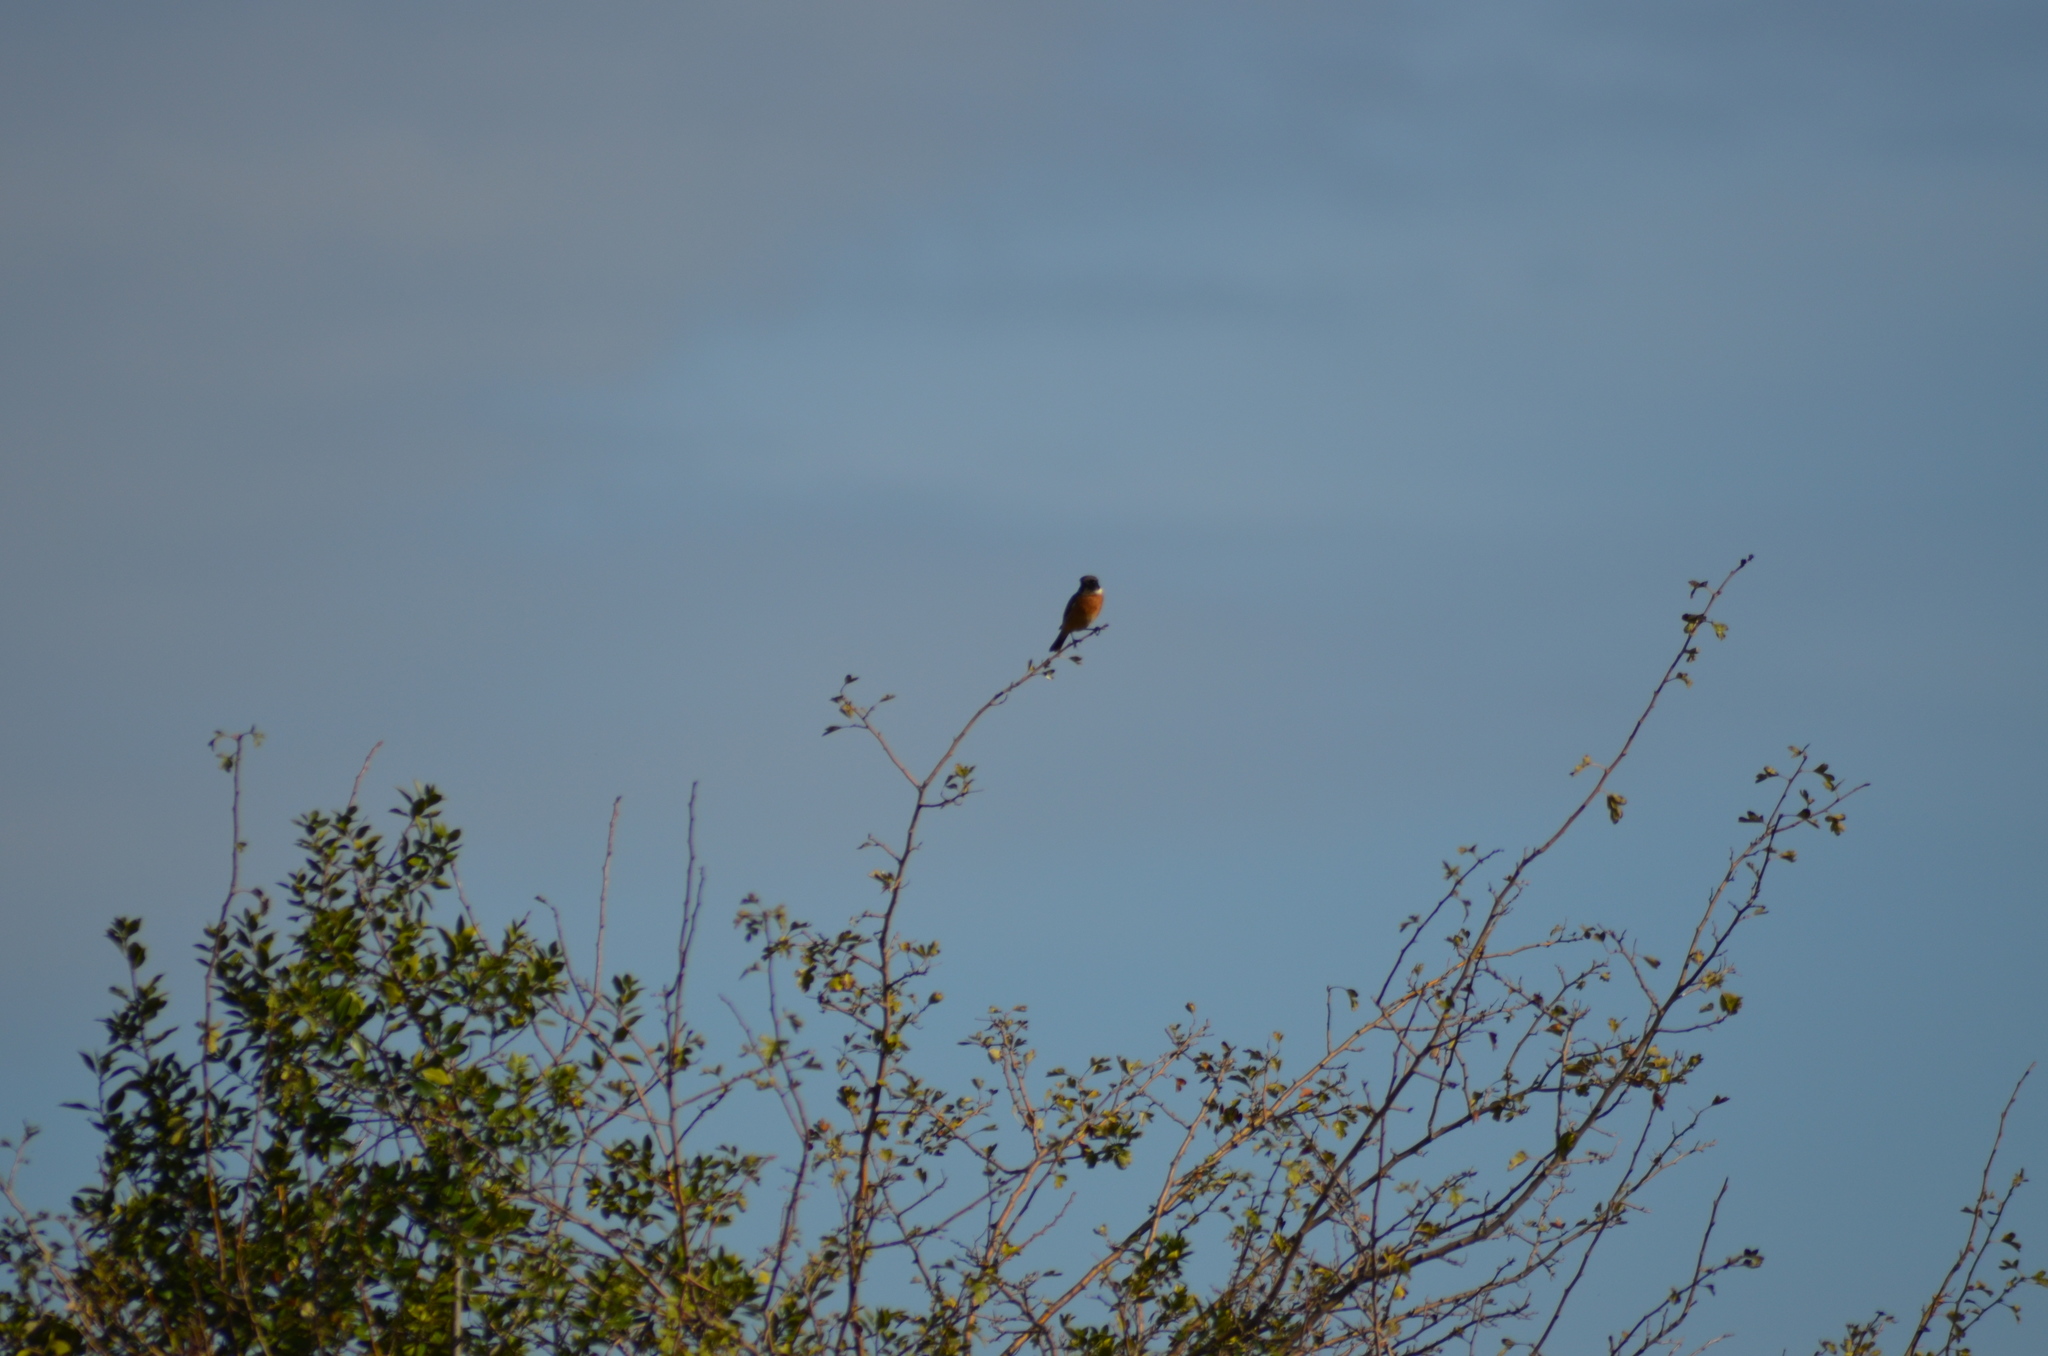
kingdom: Animalia
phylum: Chordata
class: Aves
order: Passeriformes
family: Muscicapidae
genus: Saxicola
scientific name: Saxicola rubicola
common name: European stonechat
